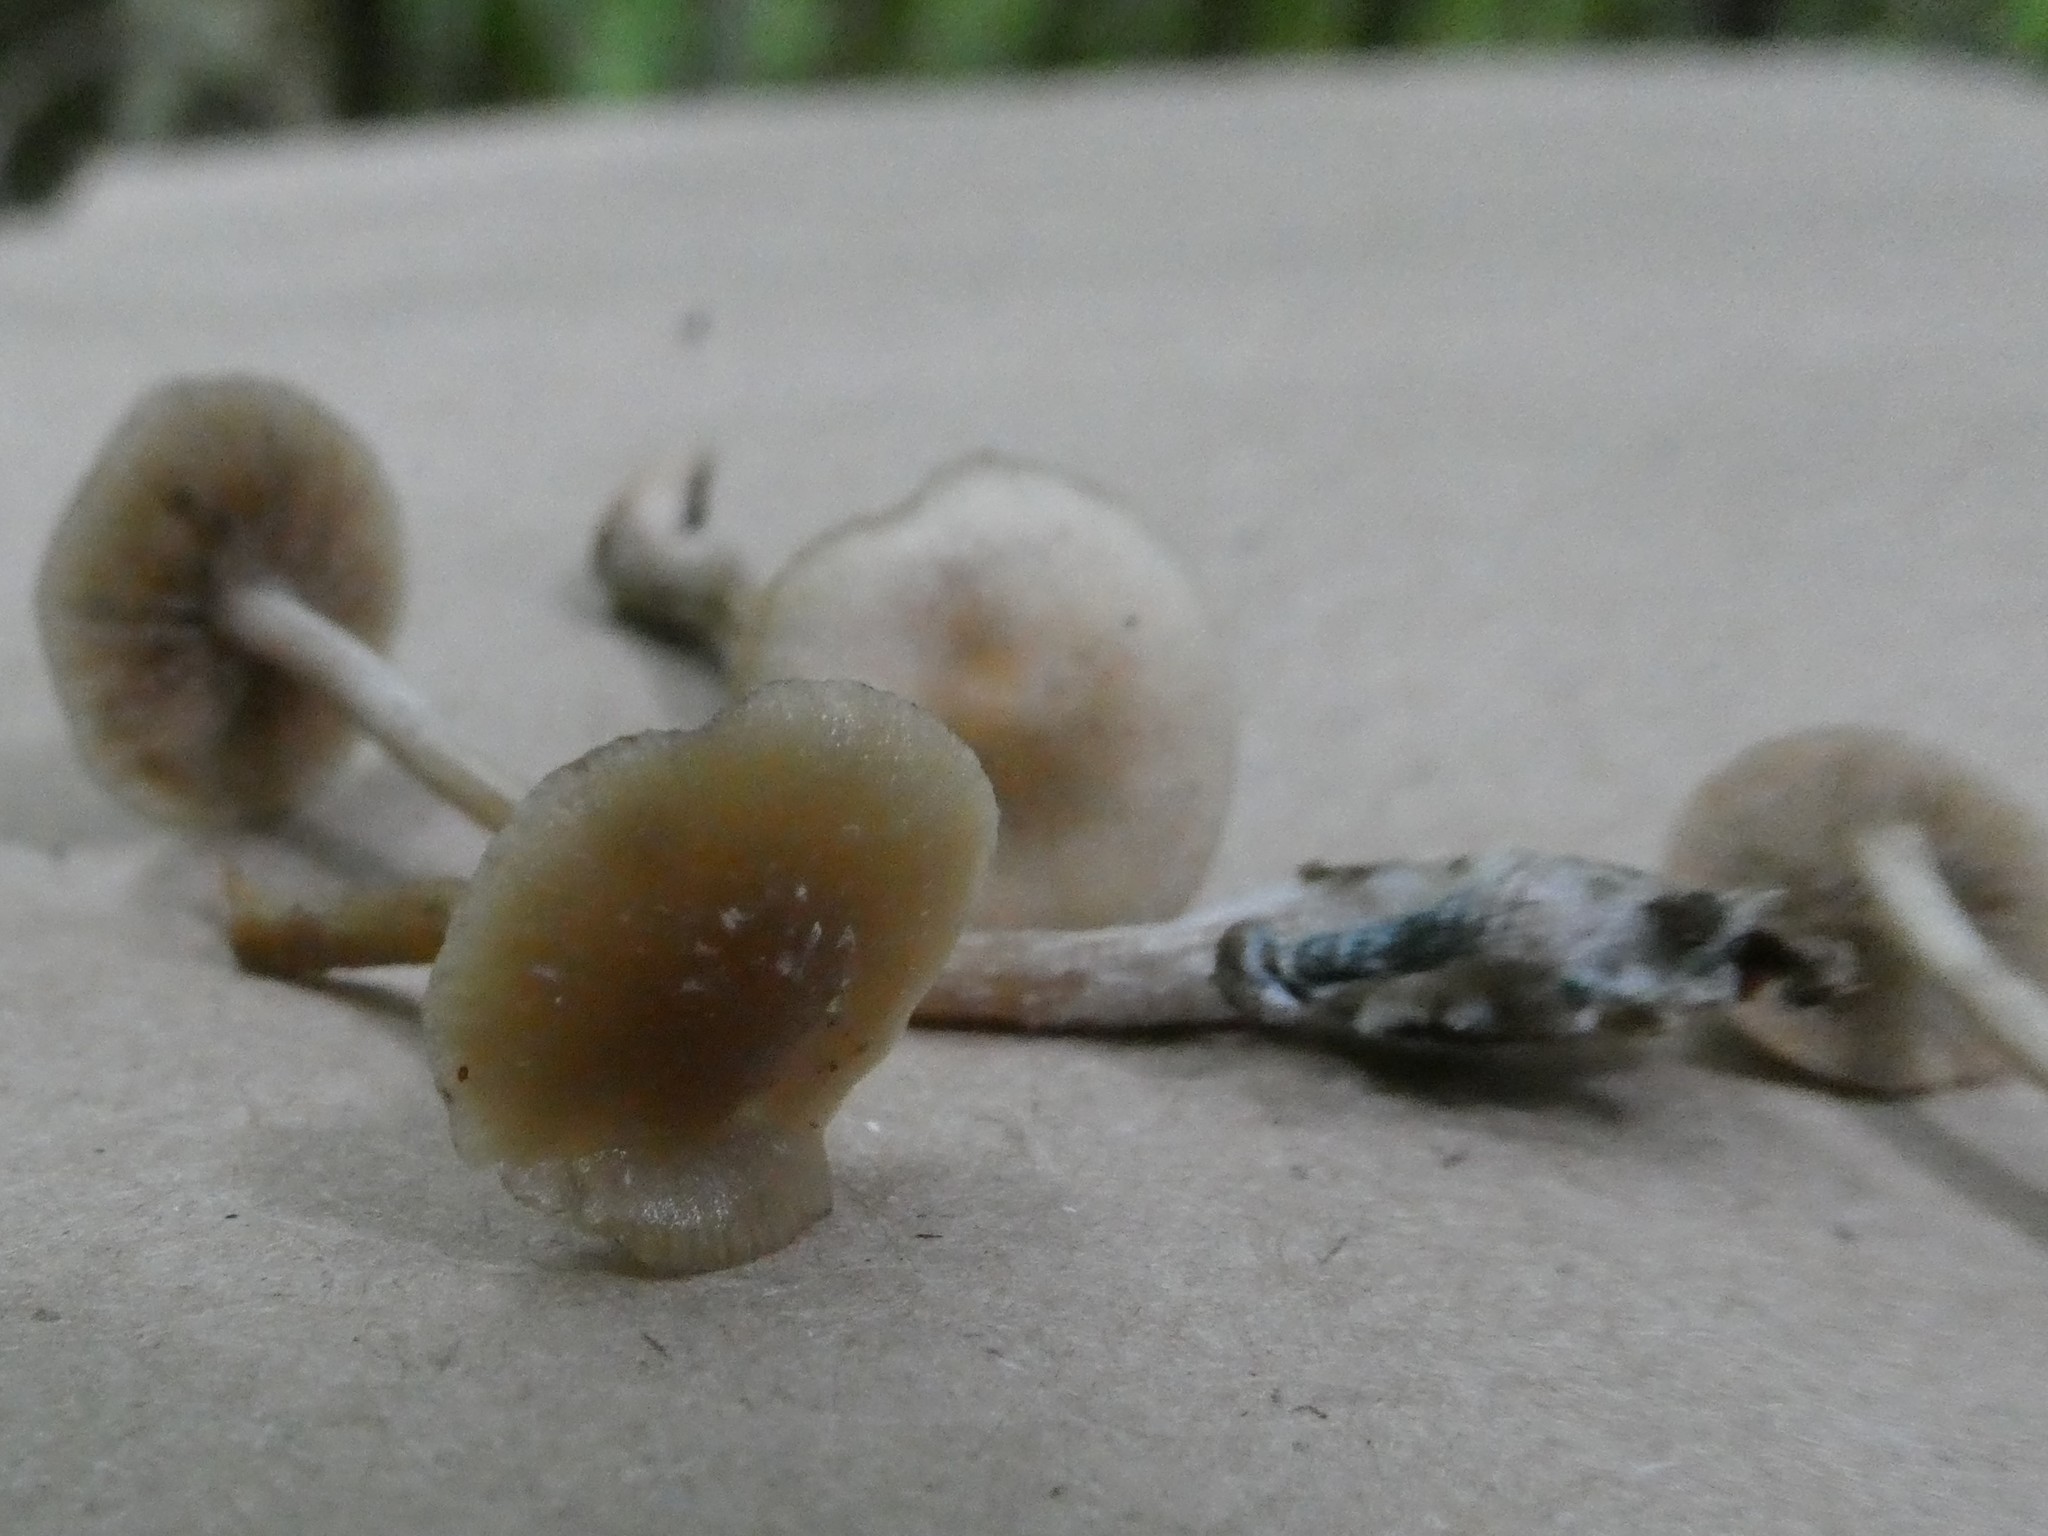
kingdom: Fungi
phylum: Basidiomycota
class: Agaricomycetes
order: Agaricales
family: Hymenogastraceae
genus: Psilocybe
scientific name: Psilocybe caerulipes
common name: Blue-foot
